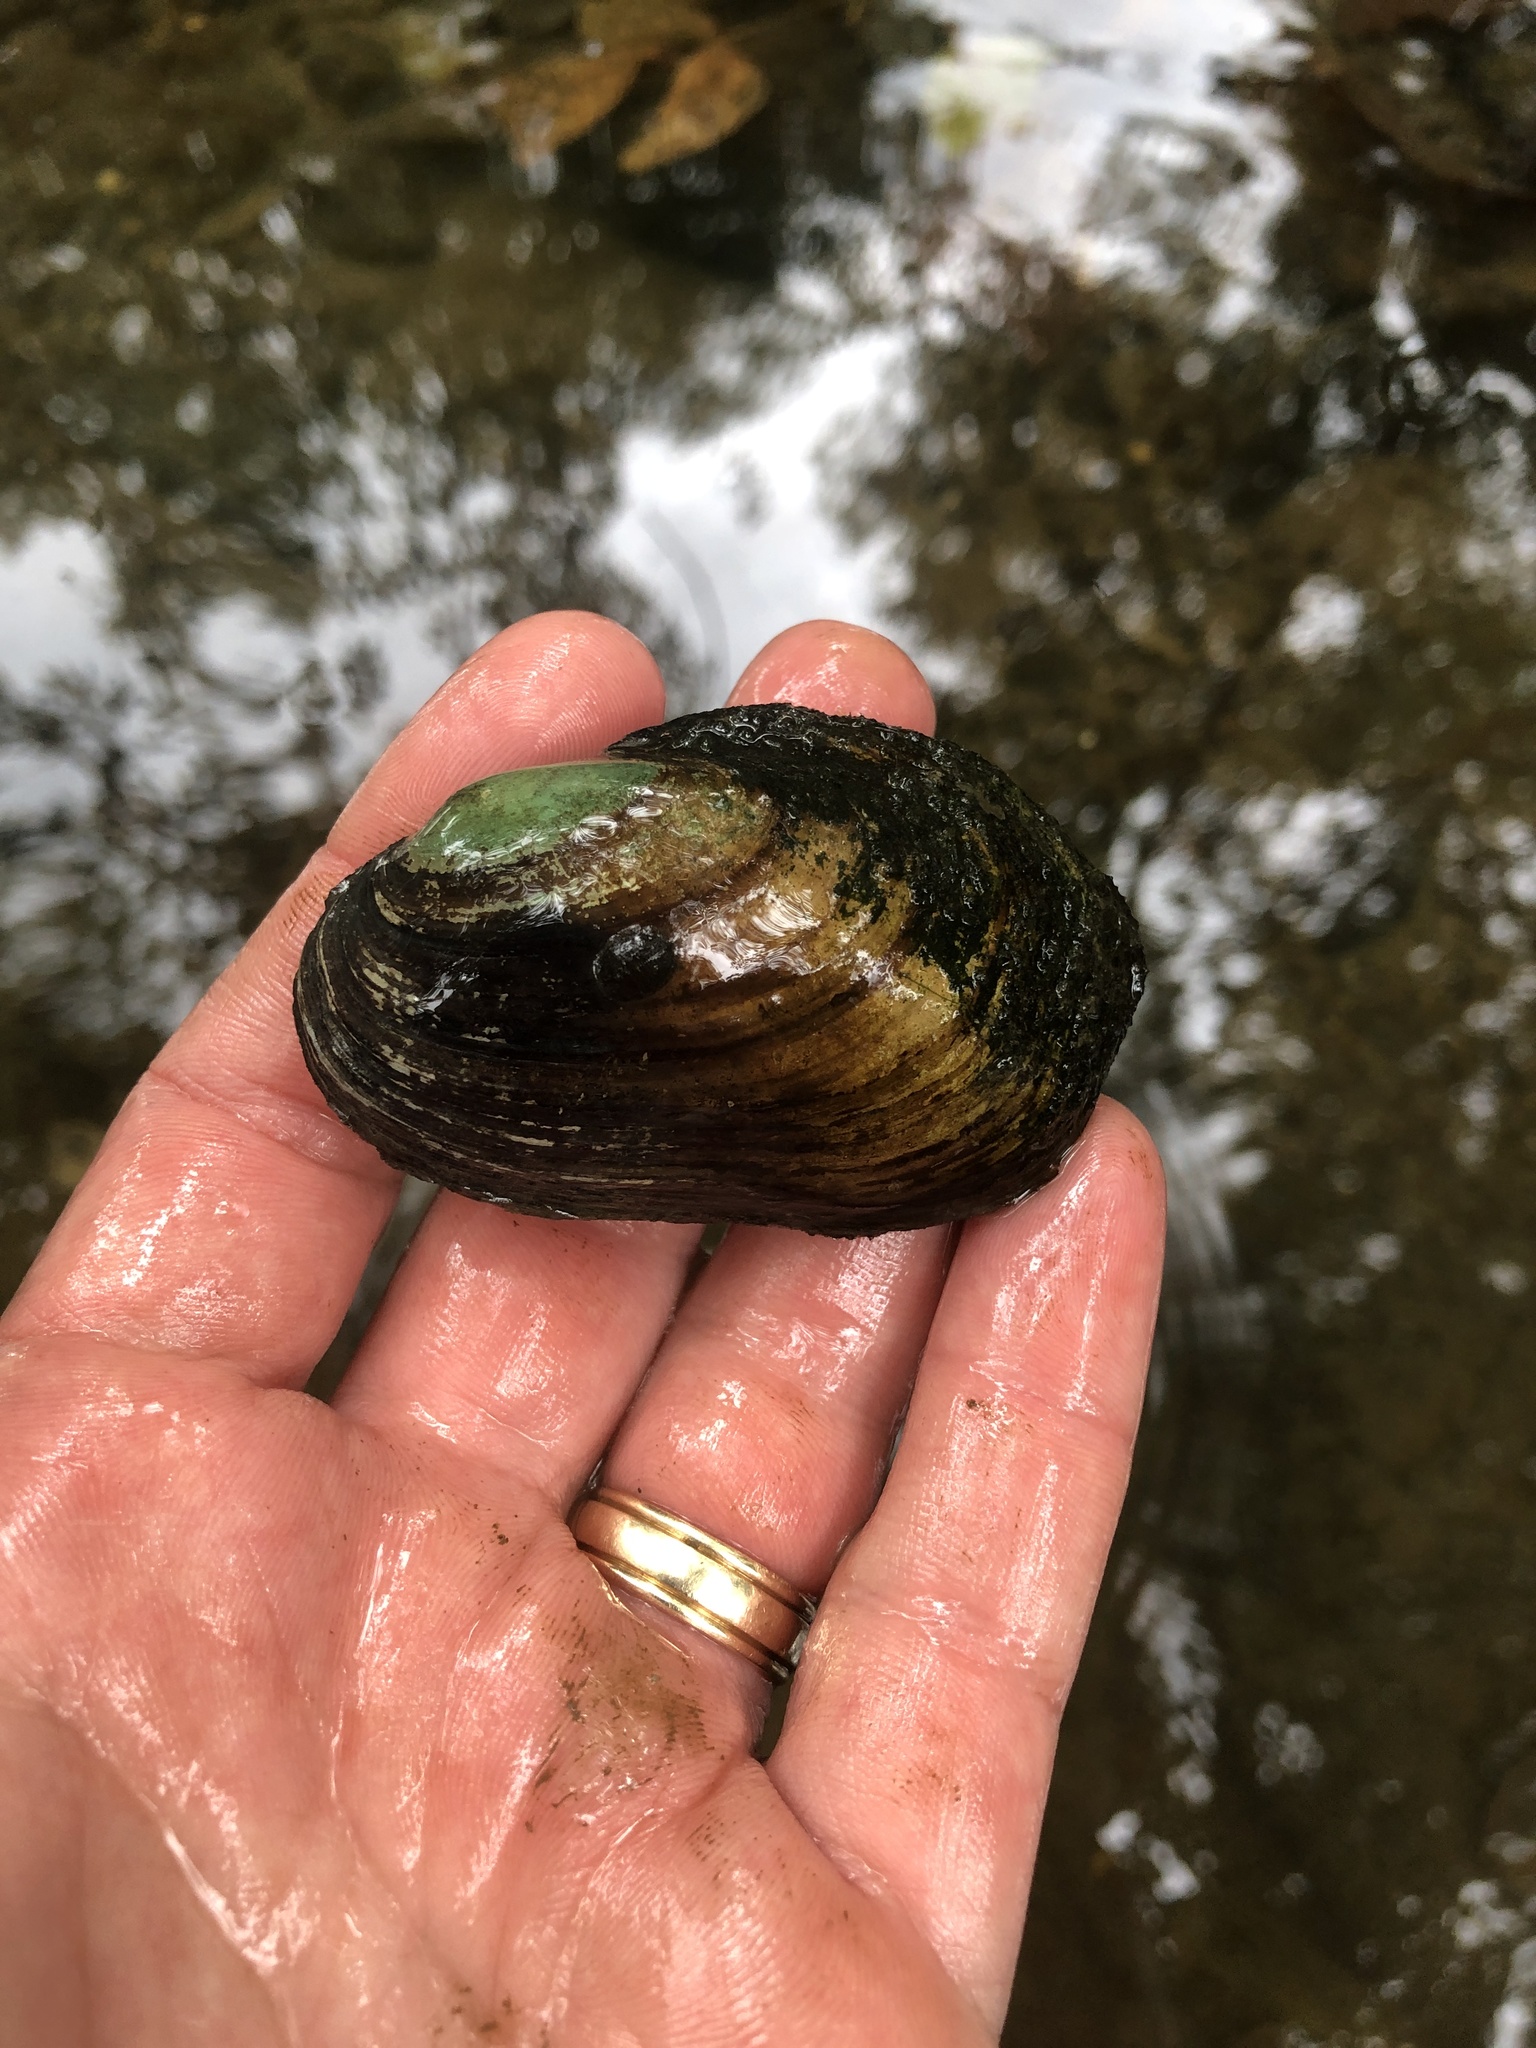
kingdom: Animalia
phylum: Mollusca
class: Bivalvia
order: Unionida
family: Unionidae
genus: Lampsilis
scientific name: Lampsilis siliquoidea
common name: Fatmucket
